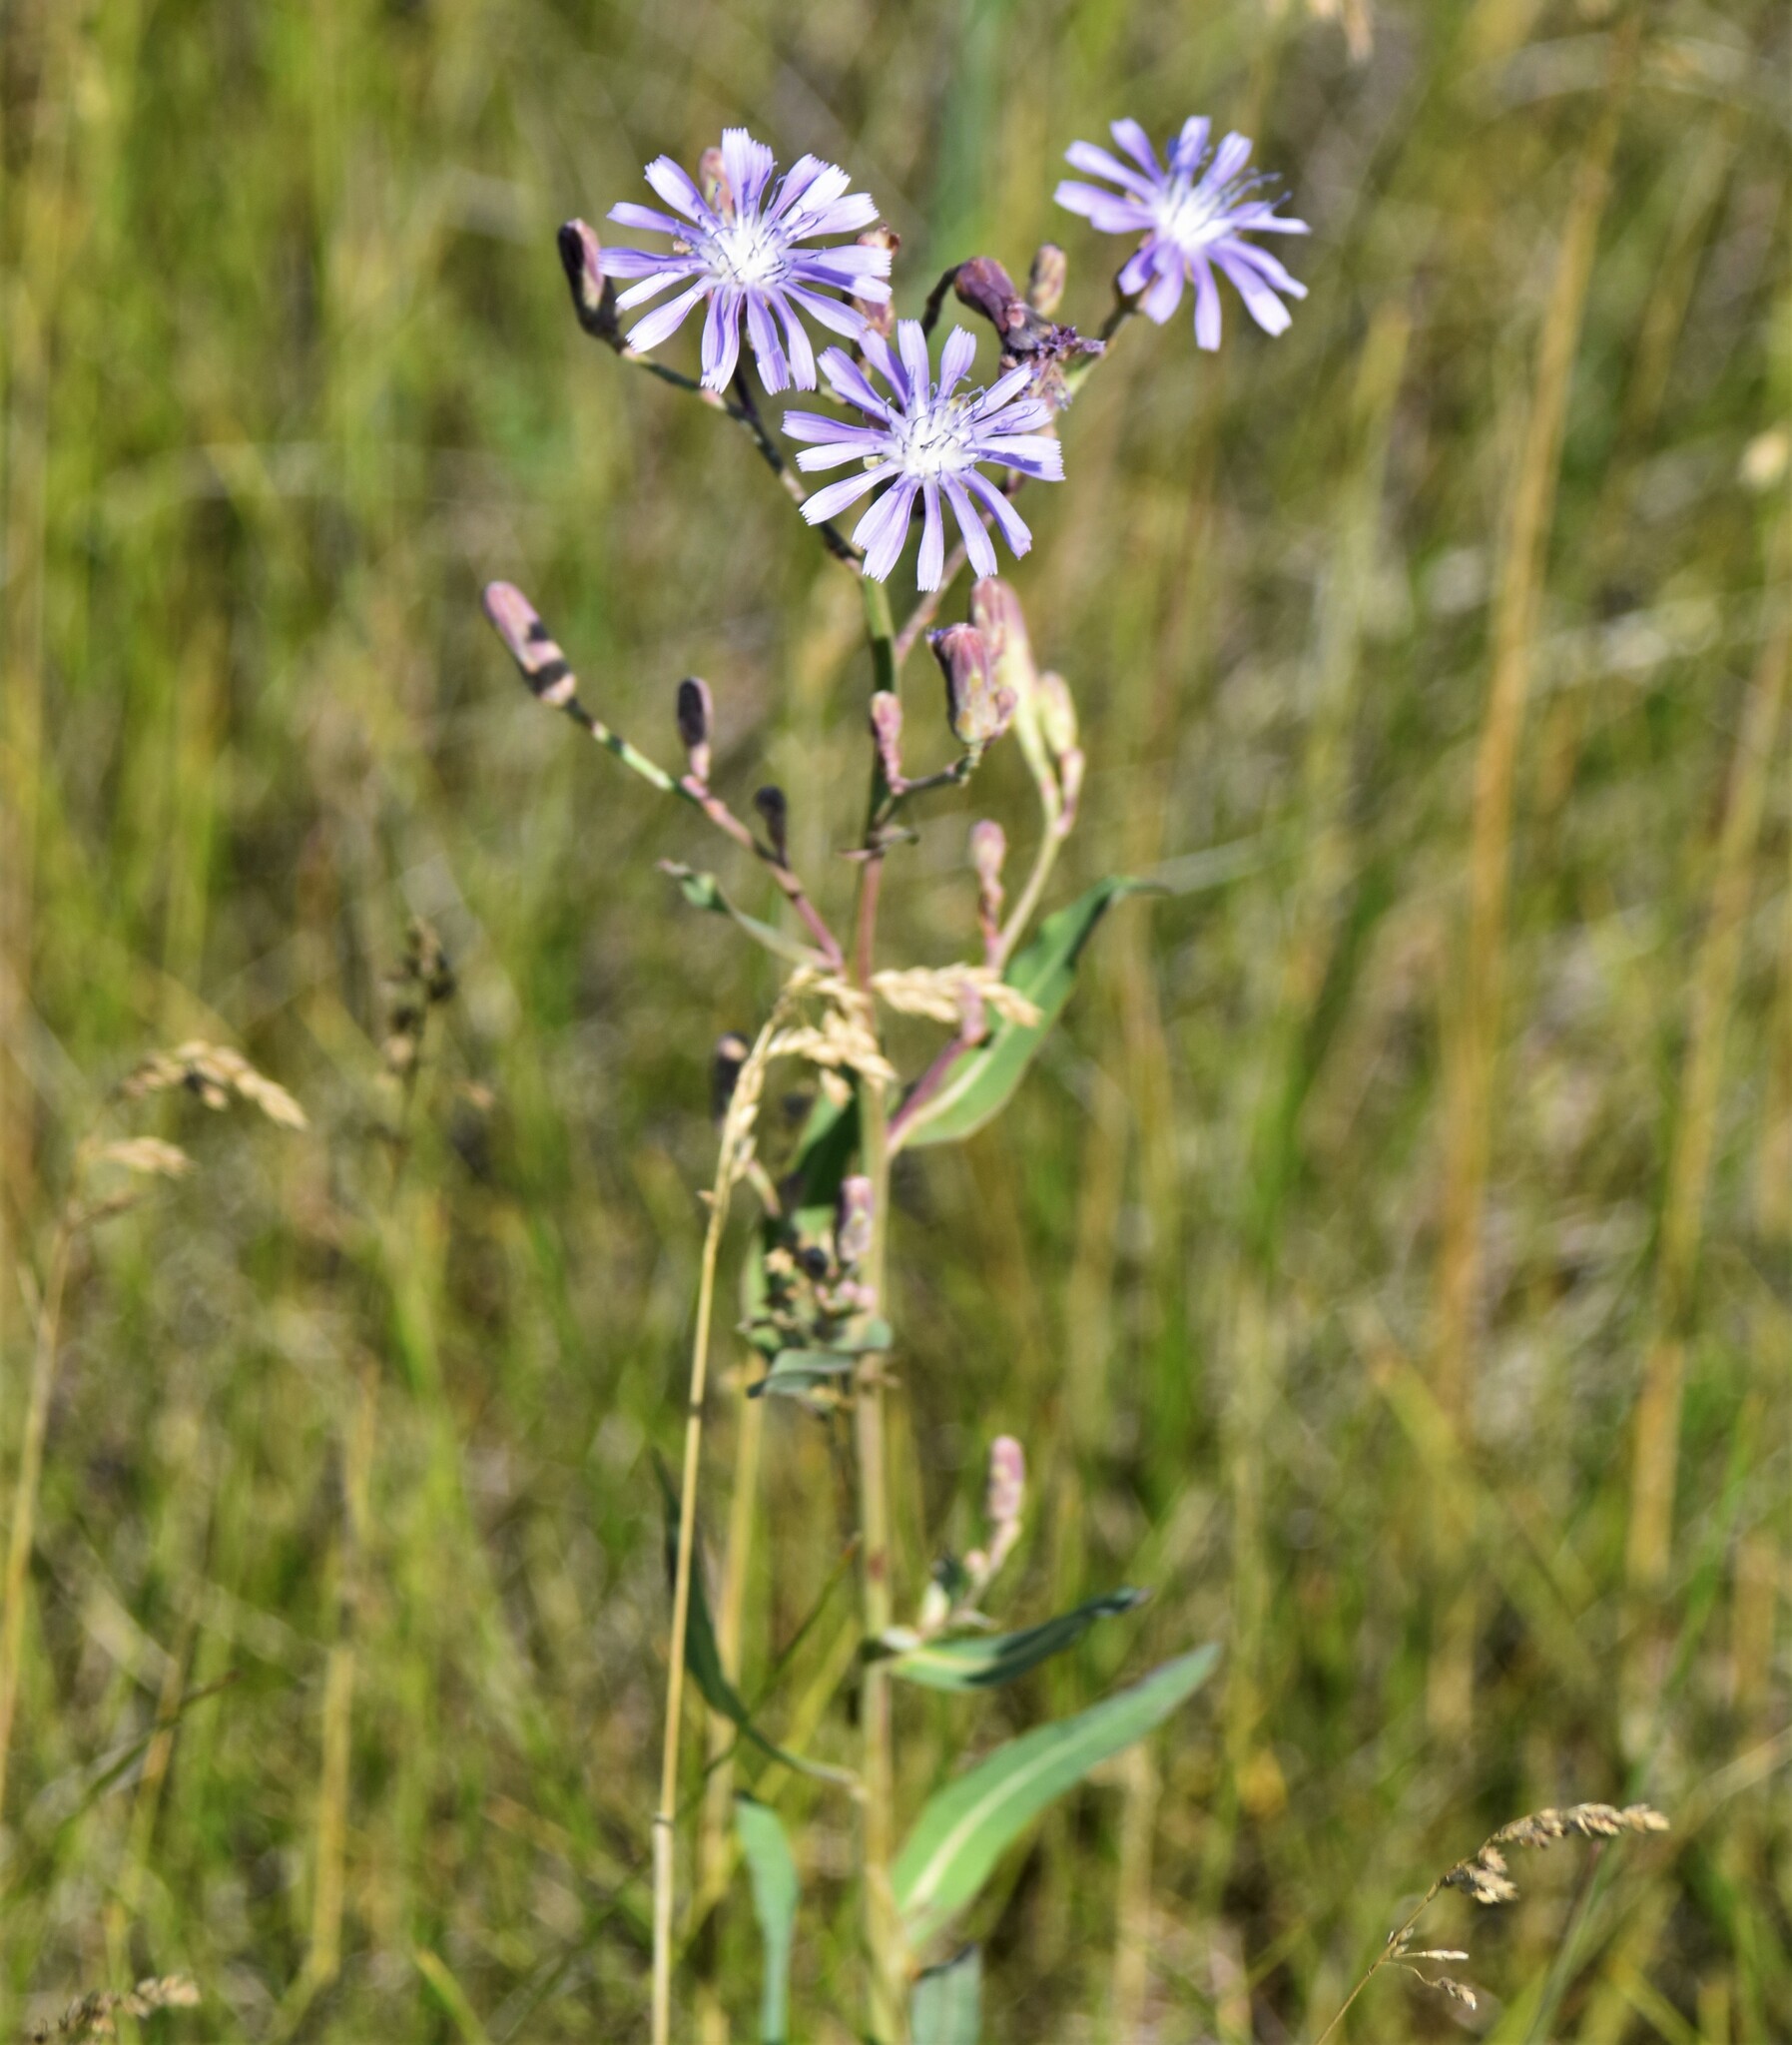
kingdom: Plantae
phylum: Tracheophyta
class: Magnoliopsida
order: Asterales
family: Asteraceae
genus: Lactuca
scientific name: Lactuca pulchella
